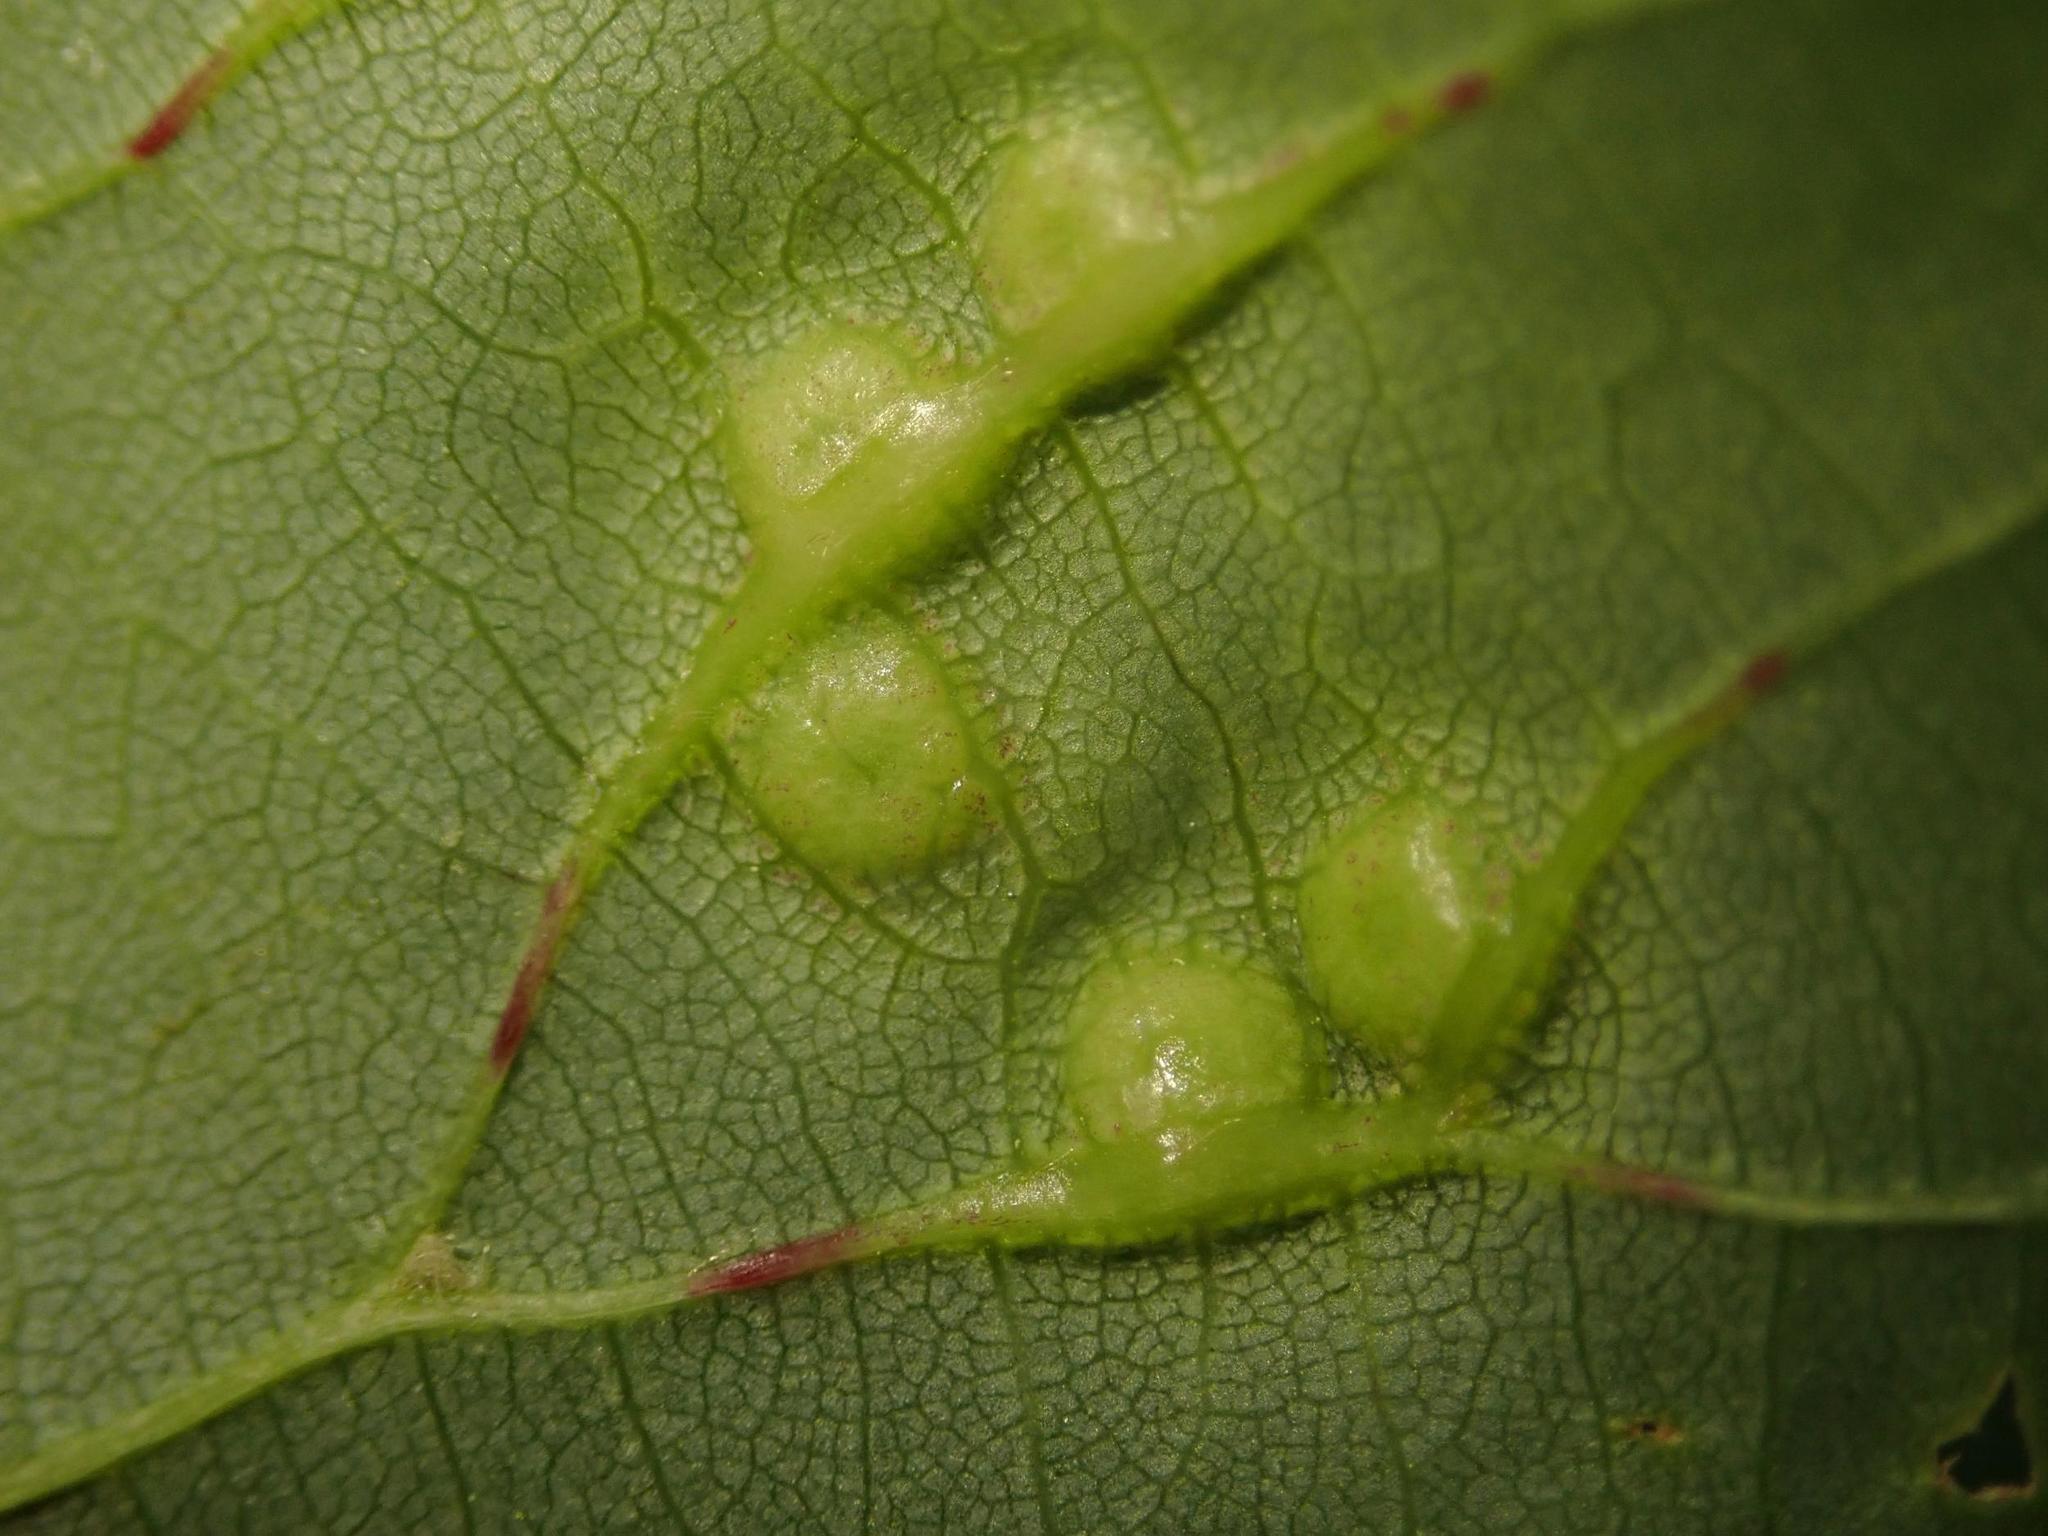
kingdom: Animalia
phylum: Arthropoda
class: Insecta
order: Diptera
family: Cecidomyiidae
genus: Didymomyia
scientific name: Didymomyia tiliacea
